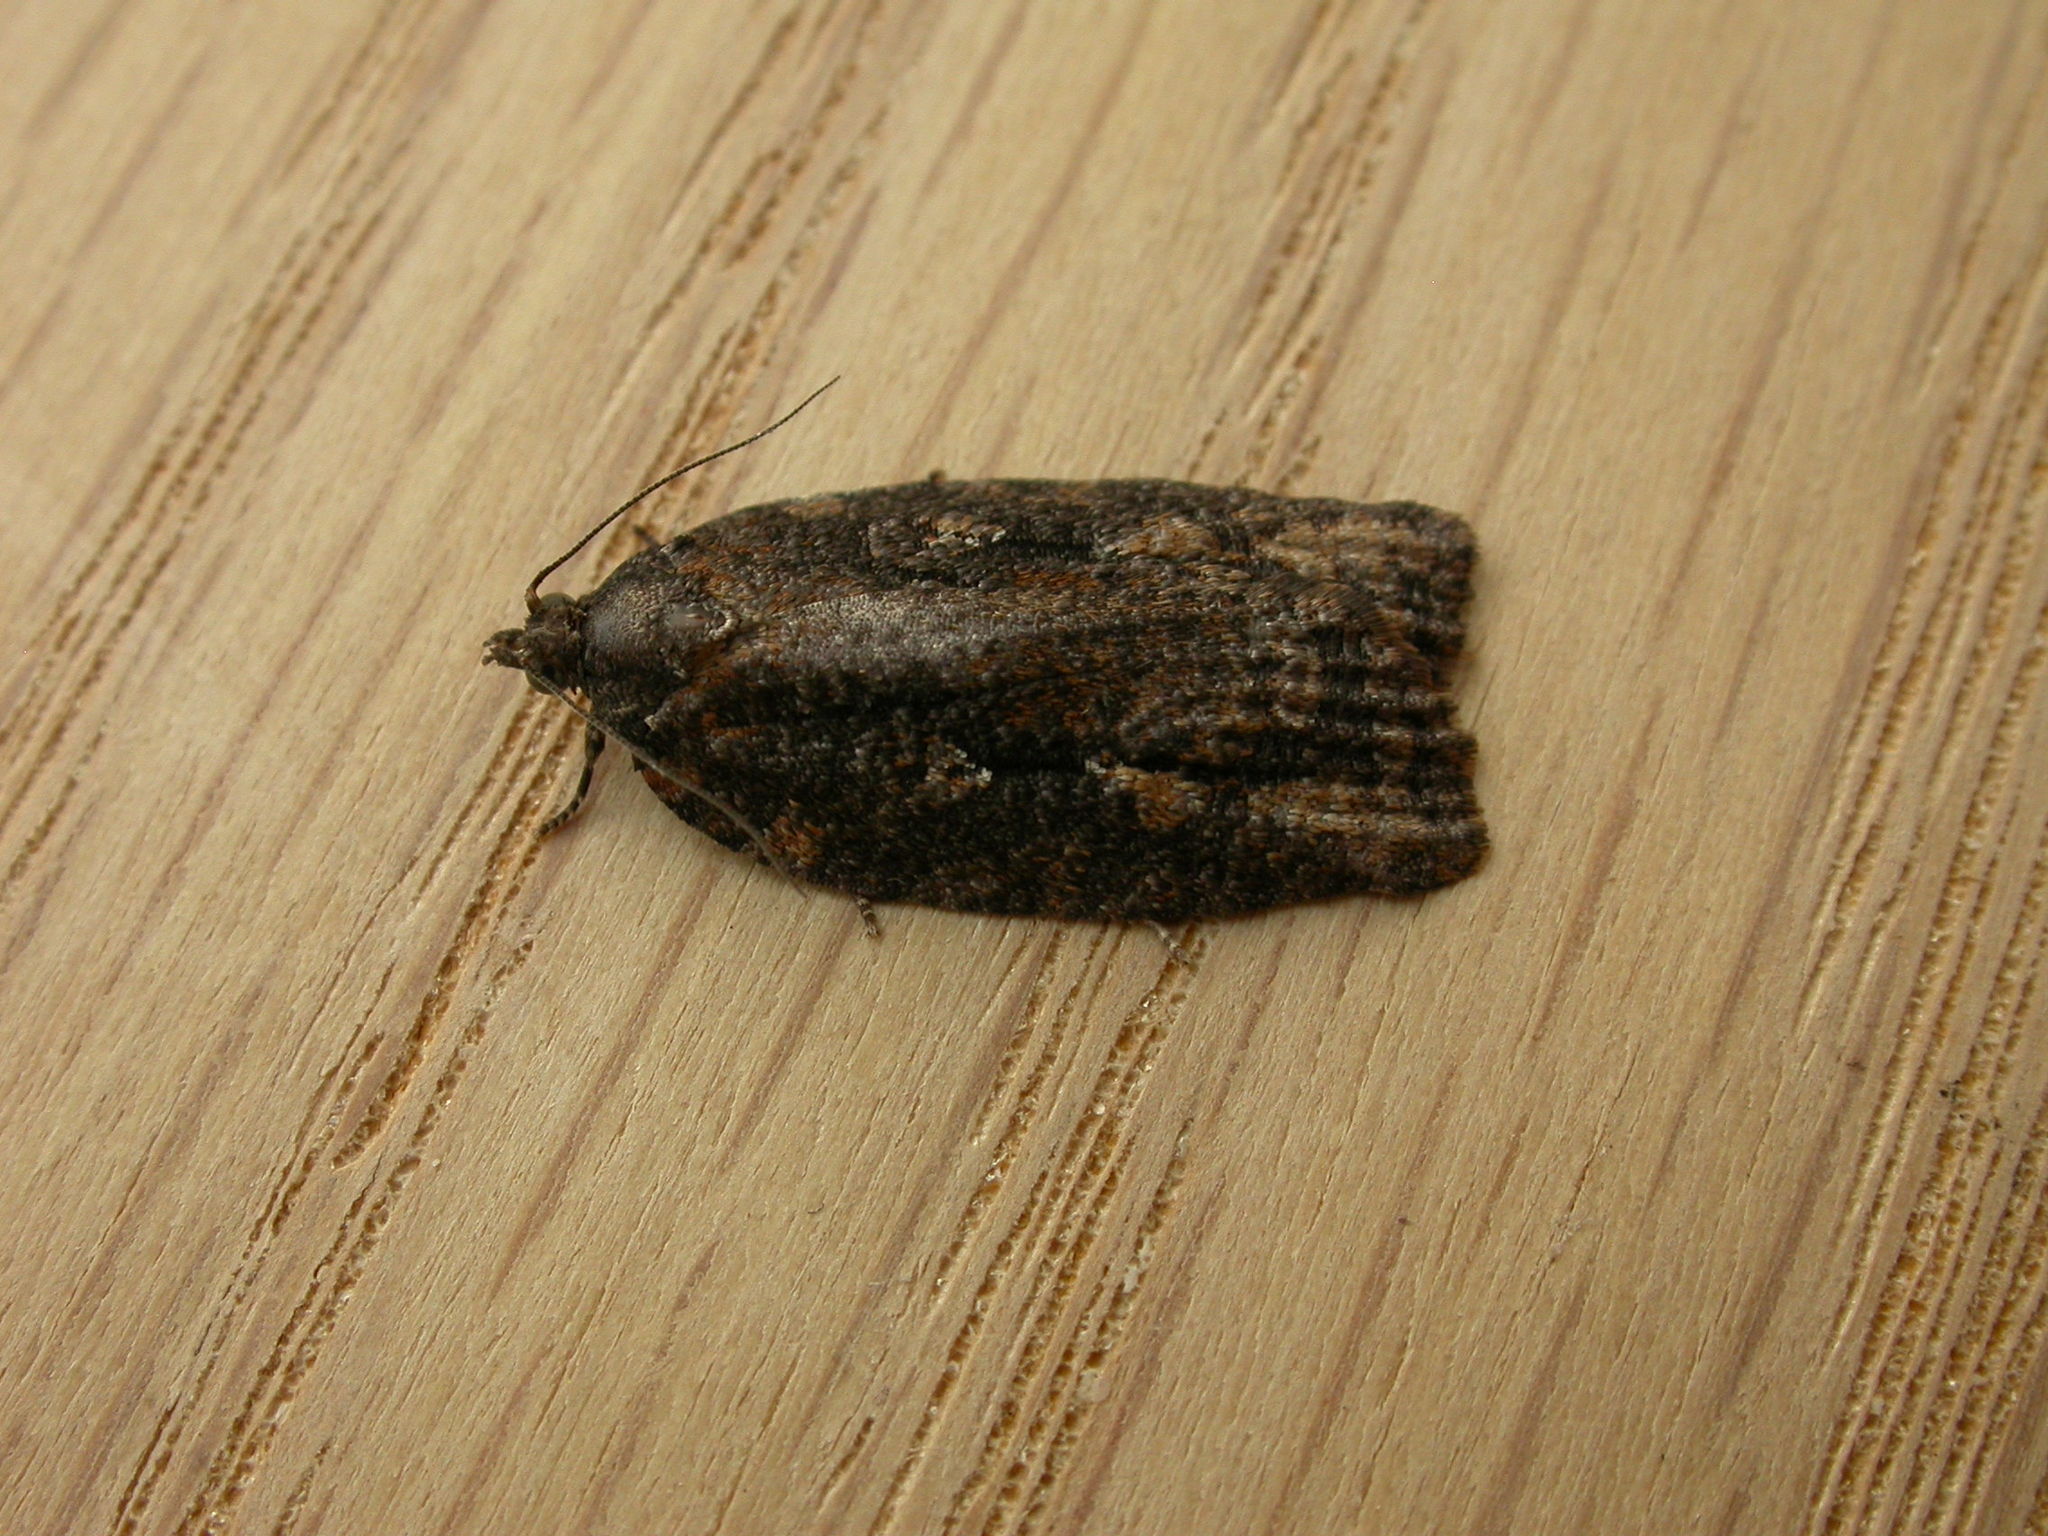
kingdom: Animalia
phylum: Arthropoda
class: Insecta
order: Lepidoptera
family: Tortricidae
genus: Acropolitis
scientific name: Acropolitis excelsa
